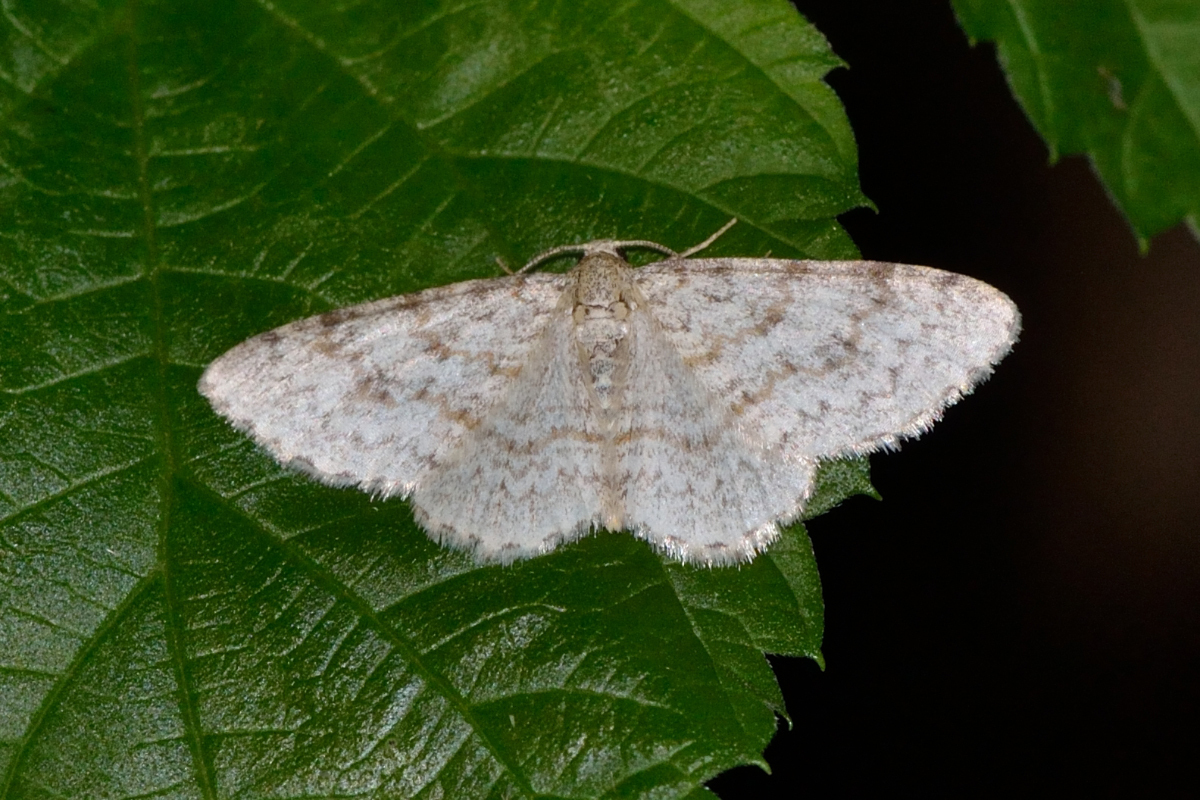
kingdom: Animalia
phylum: Arthropoda
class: Insecta
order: Lepidoptera
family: Geometridae
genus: Hydrelia
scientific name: Hydrelia sylvata
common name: Waved carpet
